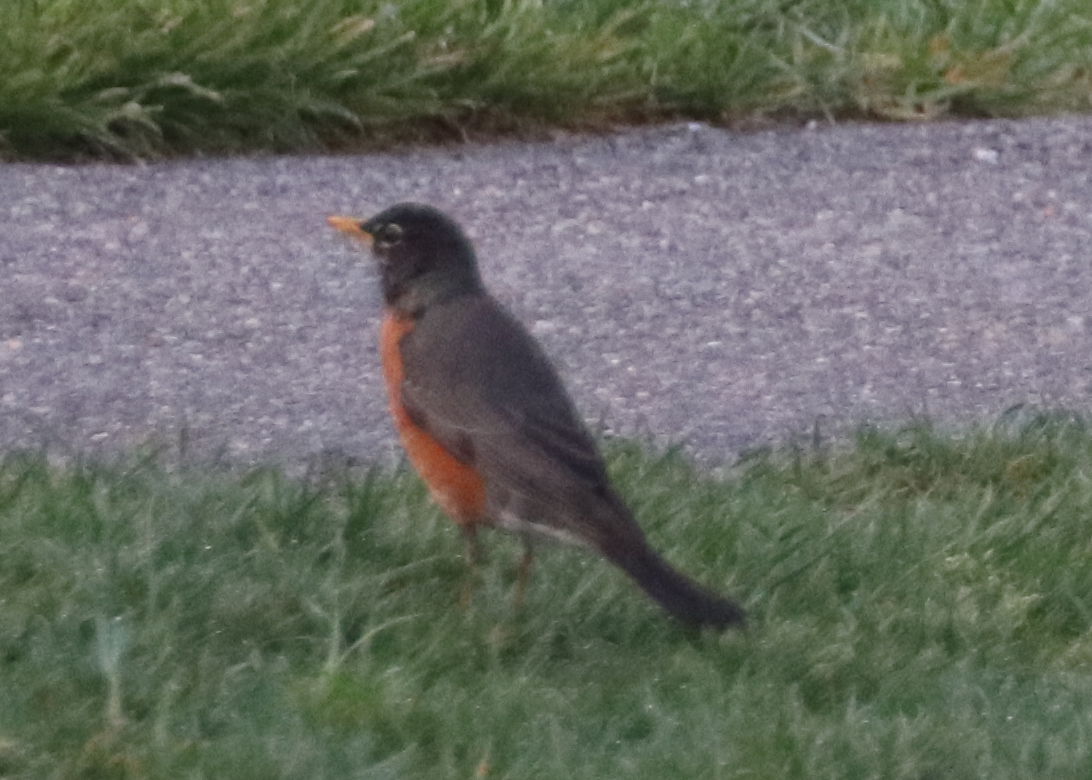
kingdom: Animalia
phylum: Chordata
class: Aves
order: Passeriformes
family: Turdidae
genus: Turdus
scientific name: Turdus migratorius
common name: American robin
